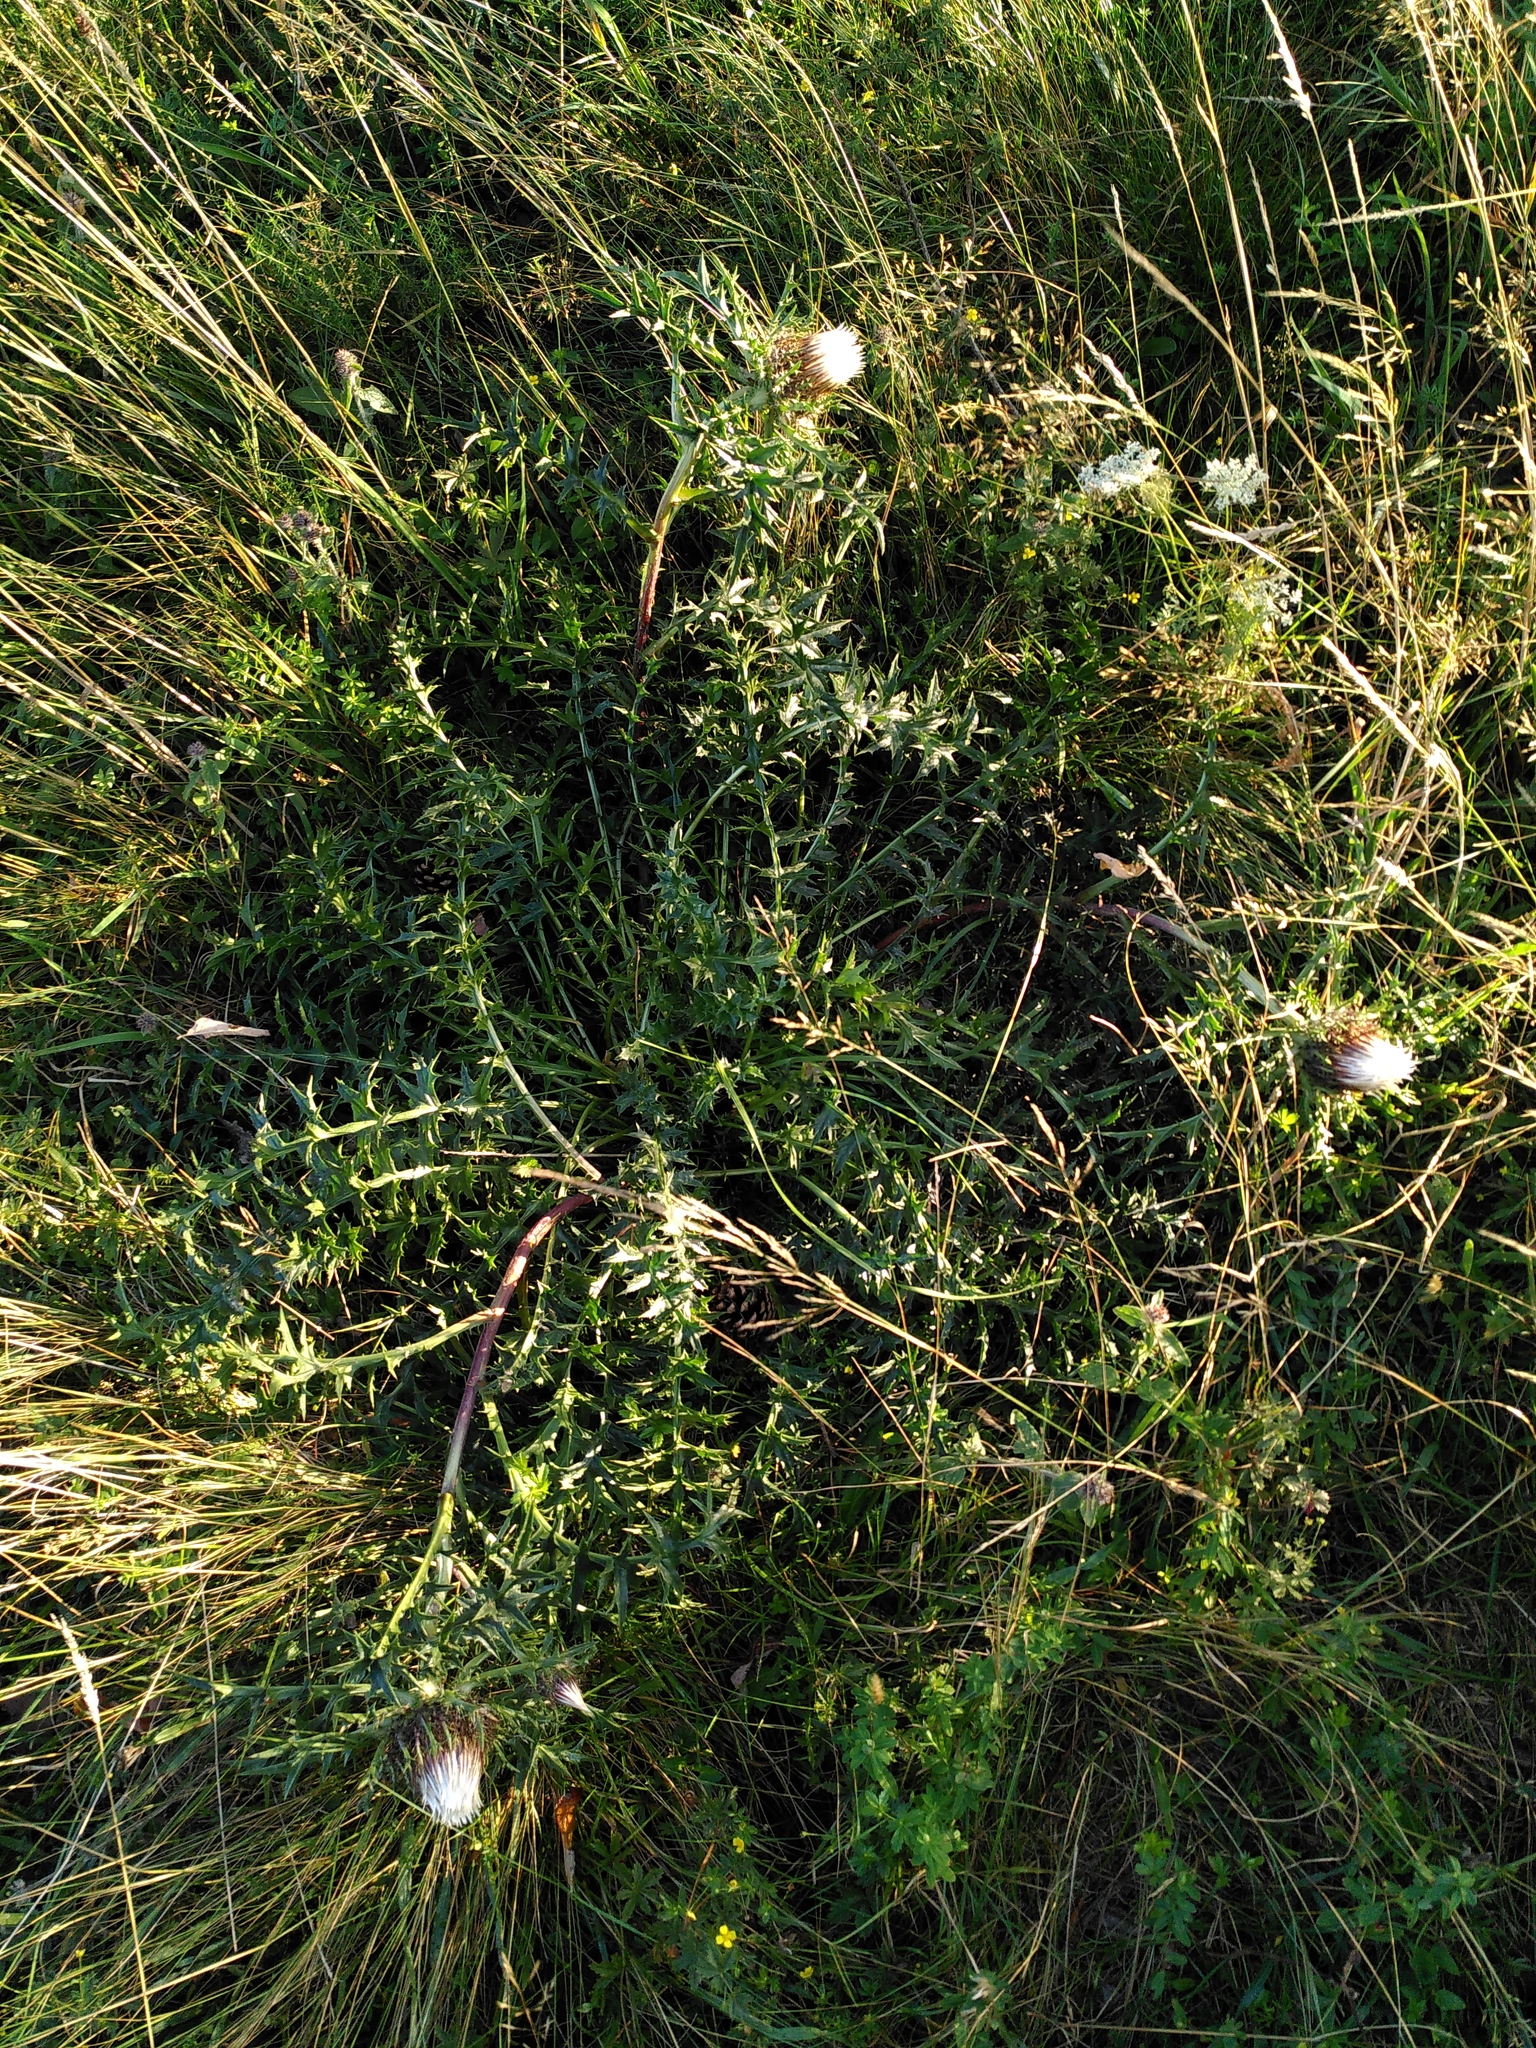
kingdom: Plantae
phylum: Tracheophyta
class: Magnoliopsida
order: Asterales
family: Asteraceae
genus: Carlina
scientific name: Carlina acaulis
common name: Stemless carline thistle
